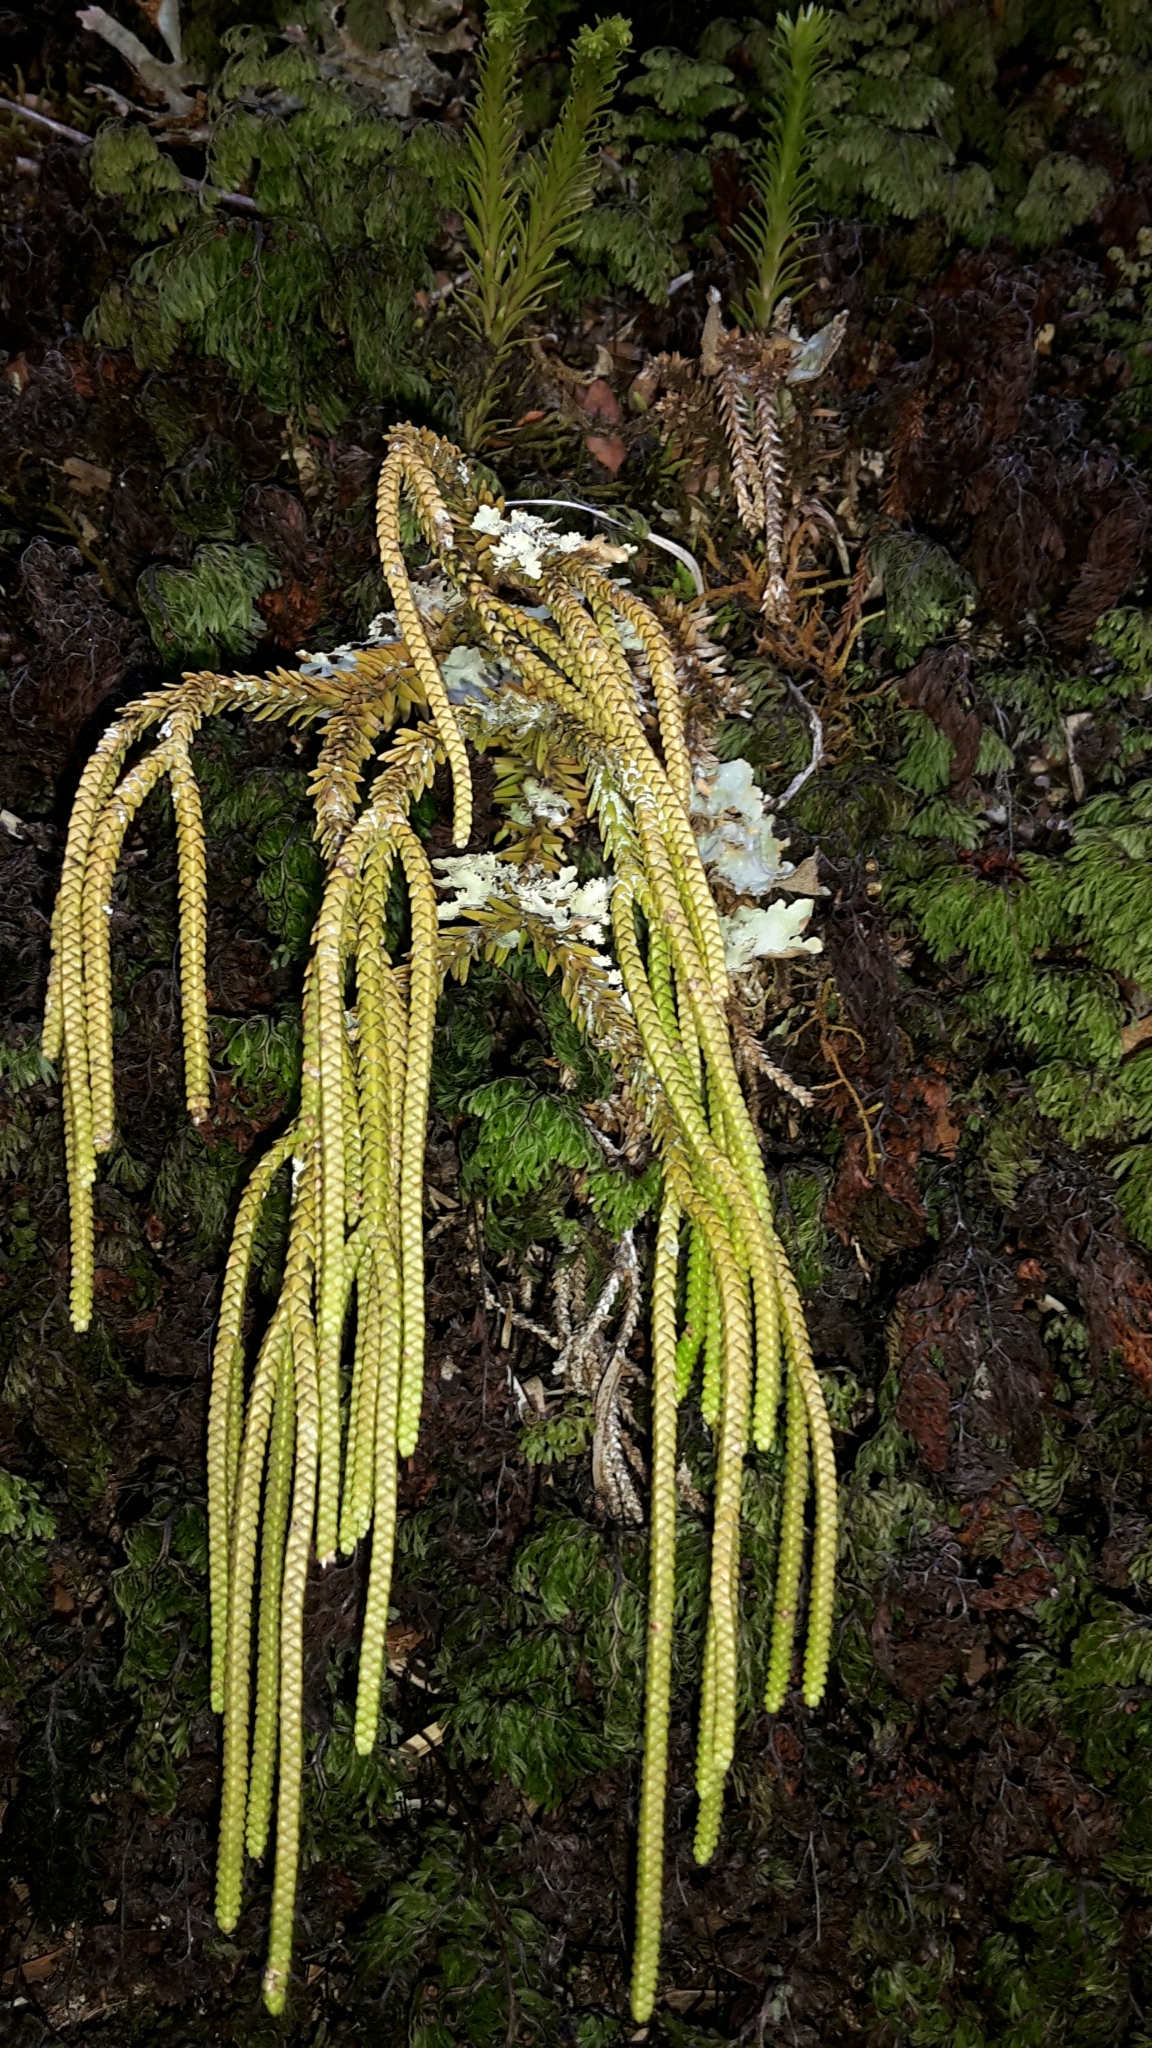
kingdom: Plantae
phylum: Tracheophyta
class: Lycopodiopsida
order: Lycopodiales
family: Lycopodiaceae
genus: Phlegmariurus
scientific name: Phlegmariurus varius
